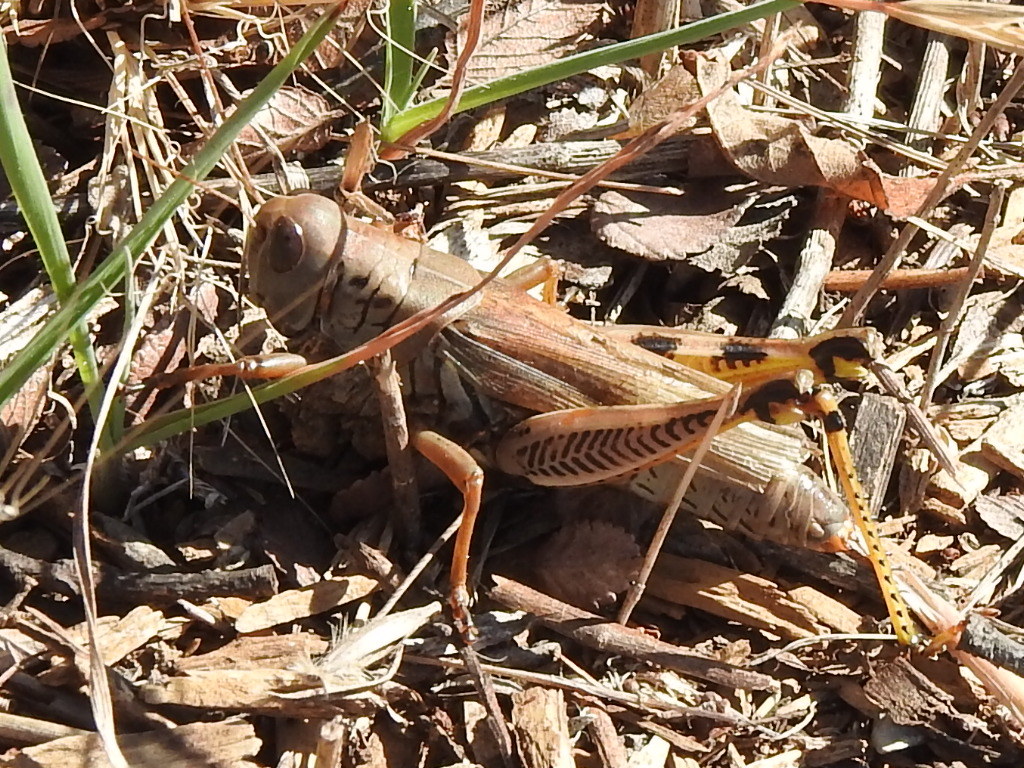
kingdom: Animalia
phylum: Arthropoda
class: Insecta
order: Orthoptera
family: Acrididae
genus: Melanoplus
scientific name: Melanoplus differentialis
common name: Differential grasshopper
